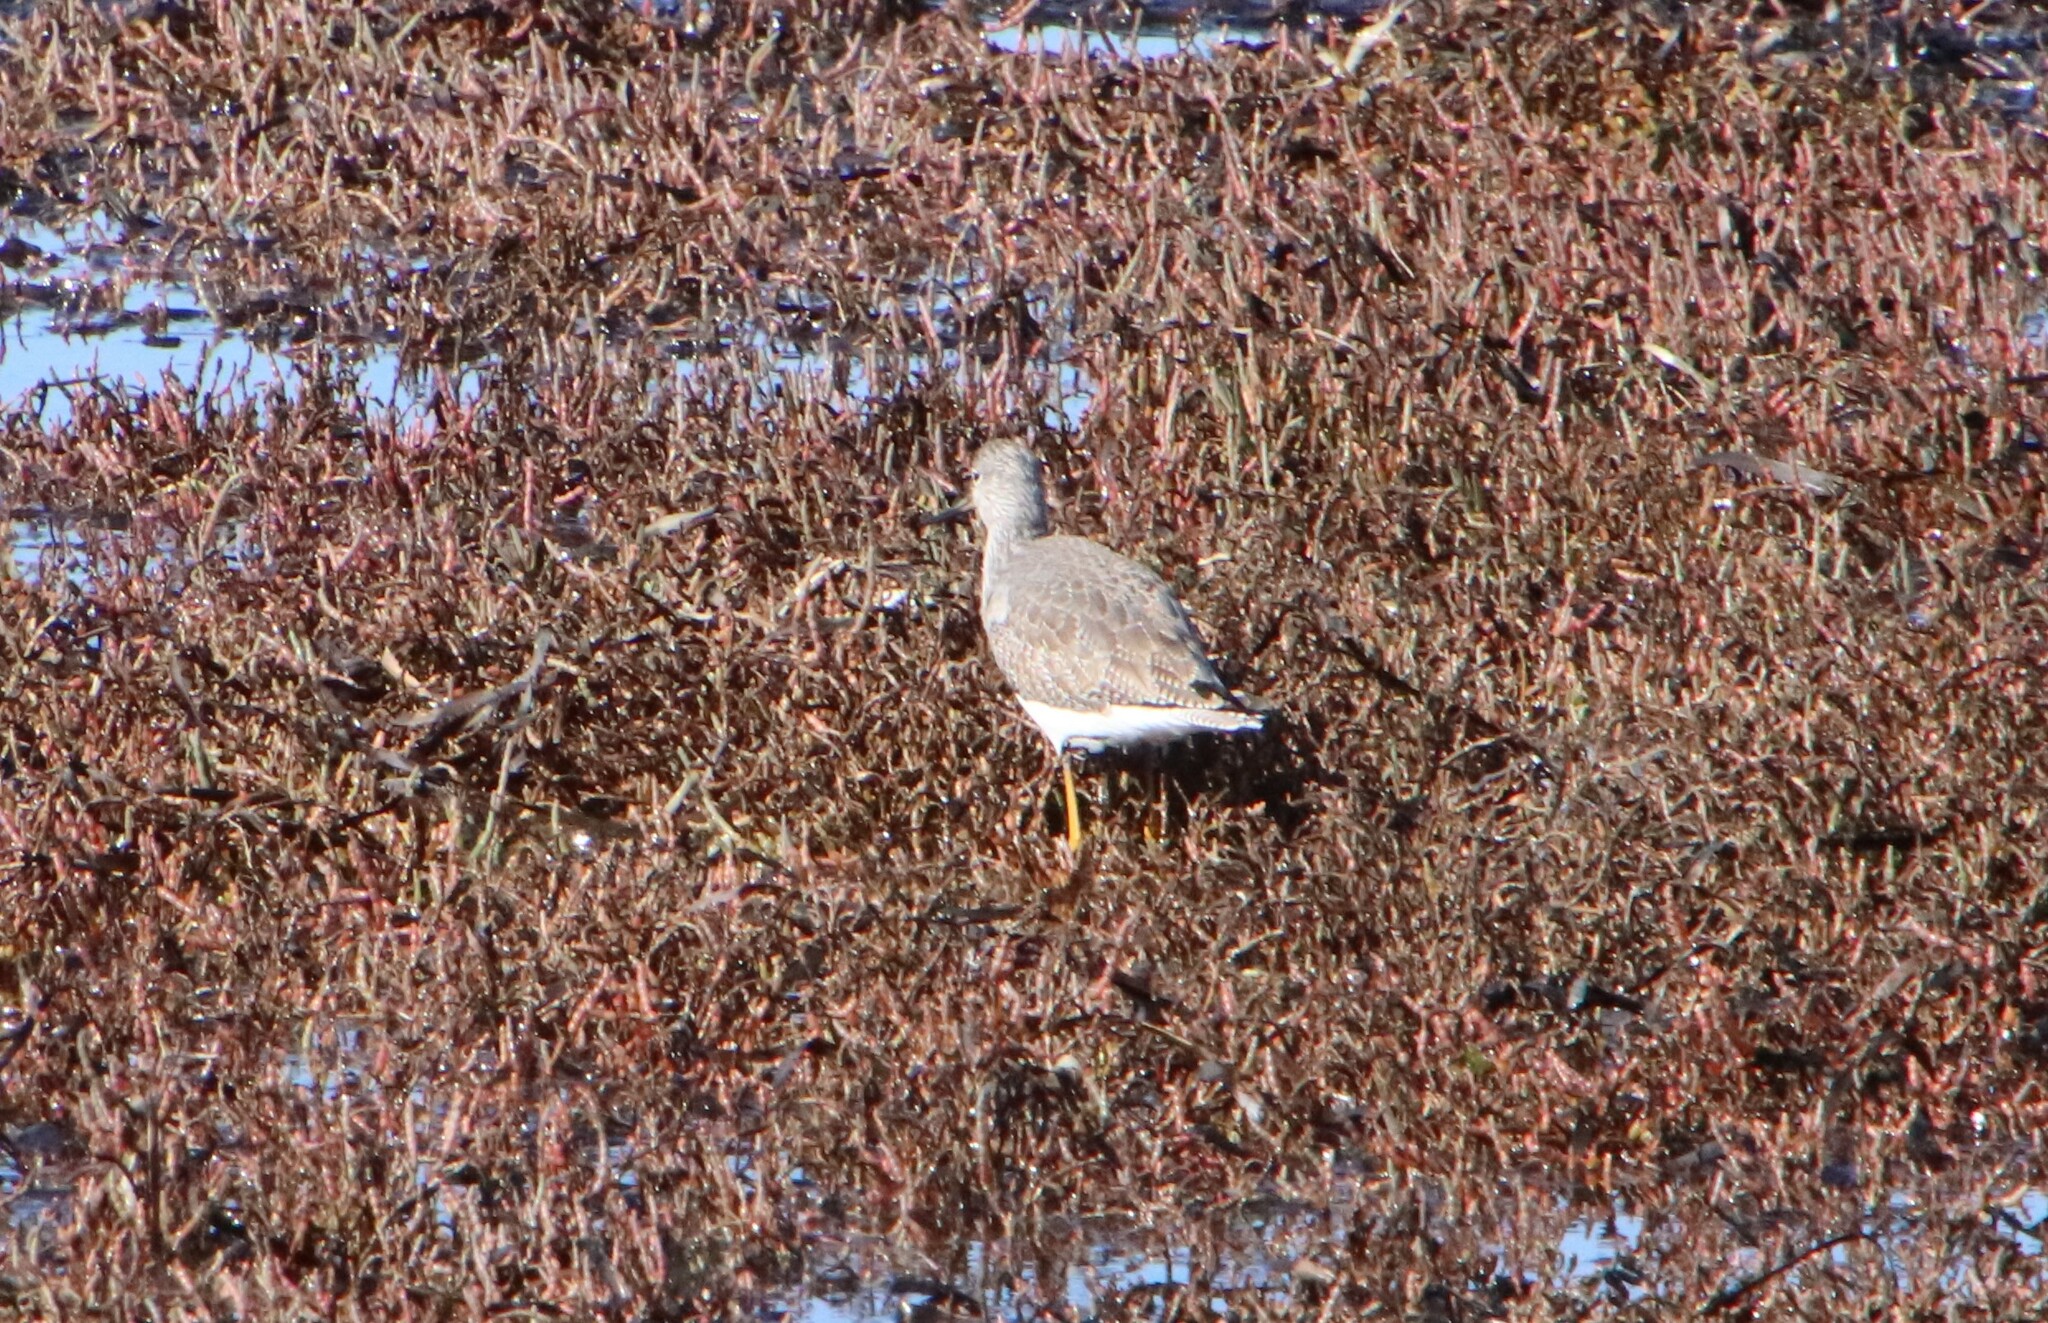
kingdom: Animalia
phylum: Chordata
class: Aves
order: Charadriiformes
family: Scolopacidae
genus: Tringa
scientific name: Tringa melanoleuca
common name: Greater yellowlegs
